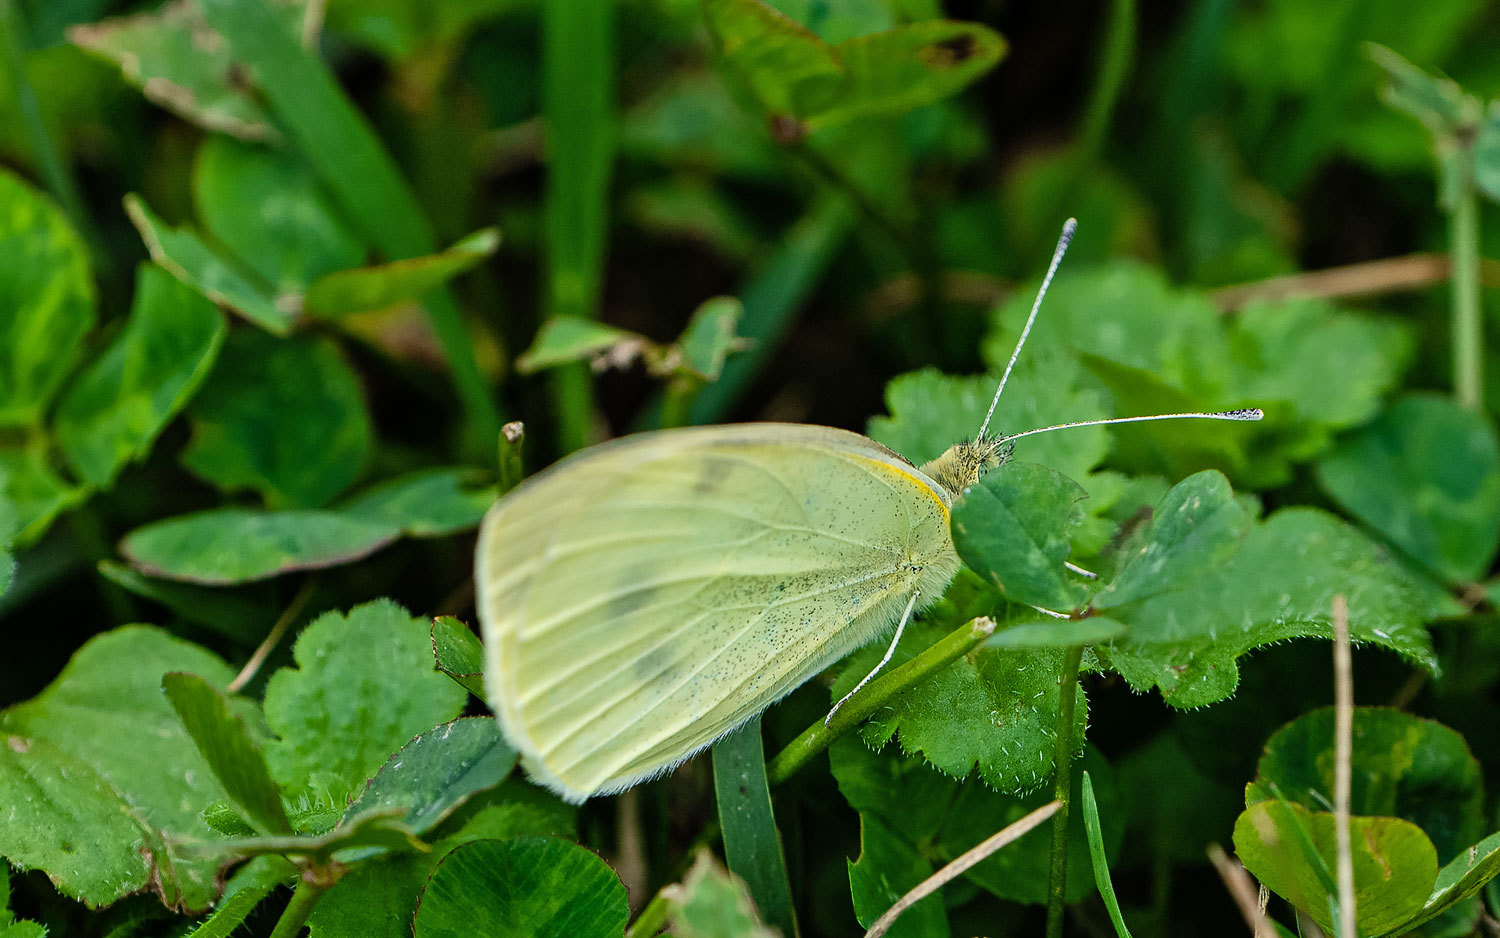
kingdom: Animalia
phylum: Arthropoda
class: Insecta
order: Lepidoptera
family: Pieridae
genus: Pieris
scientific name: Pieris rapae
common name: Small white
